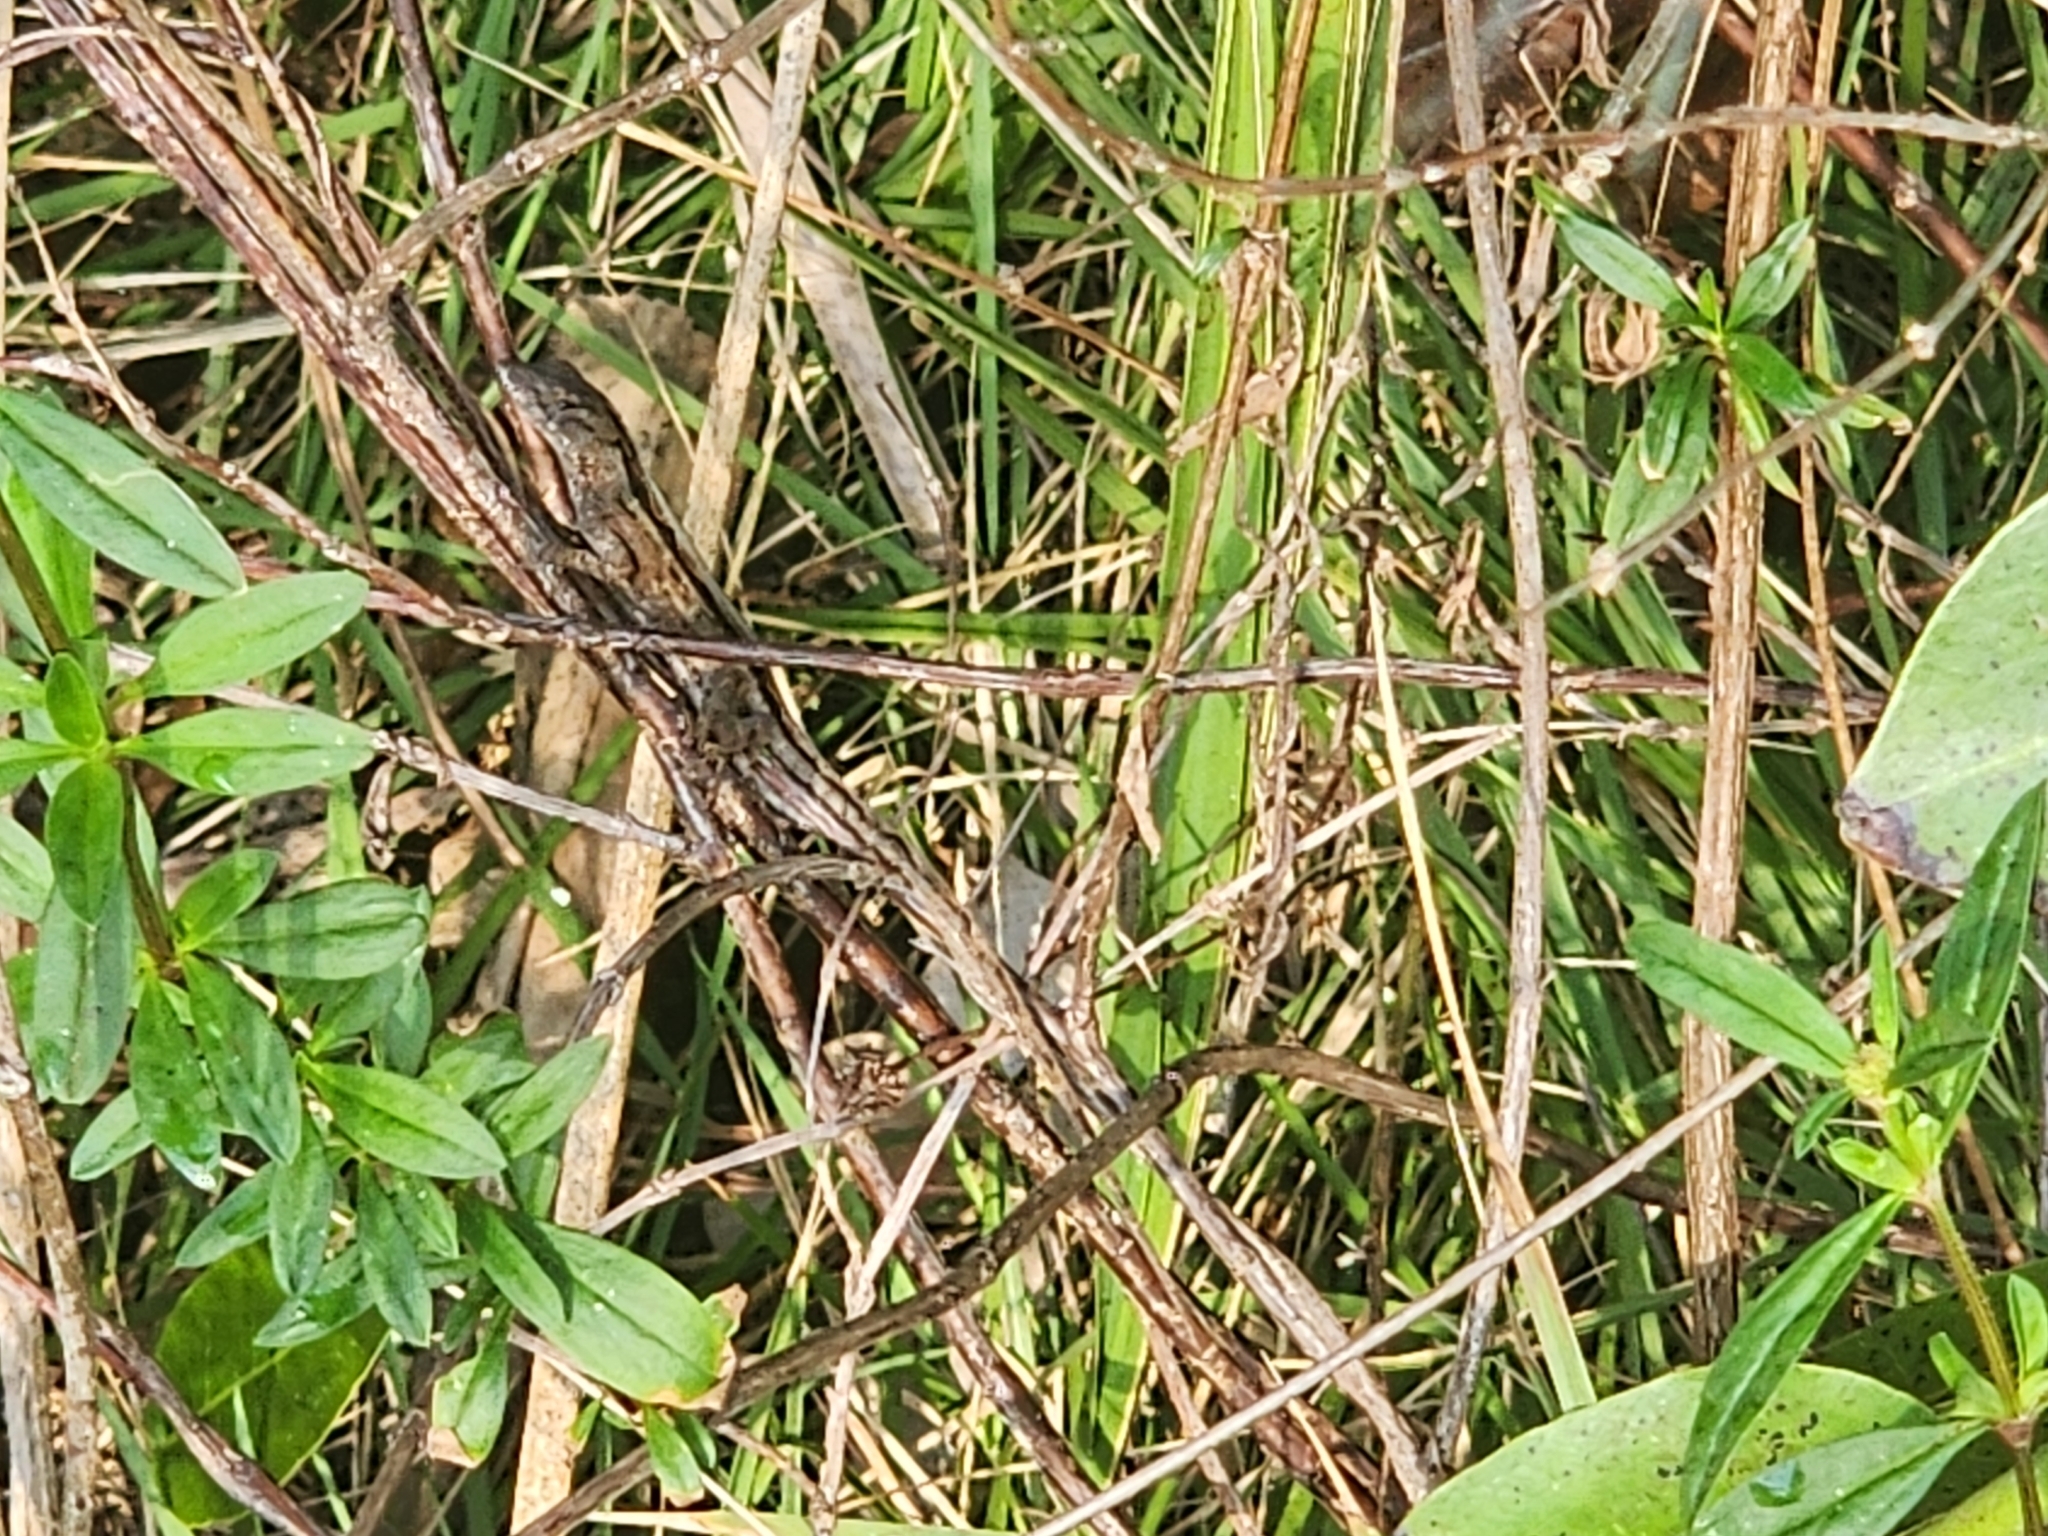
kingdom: Animalia
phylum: Chordata
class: Squamata
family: Dactyloidae
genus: Anolis
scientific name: Anolis sagrei
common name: Brown anole
